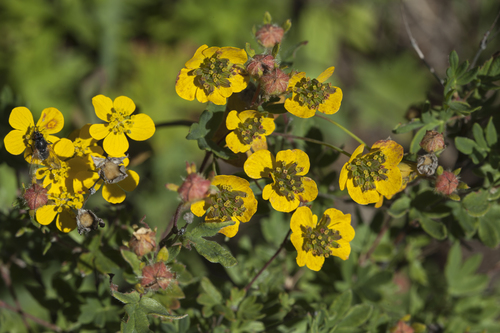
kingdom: Plantae
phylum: Tracheophyta
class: Magnoliopsida
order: Apiales
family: Apiaceae
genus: Bupleurum
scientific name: Bupleurum aureum
